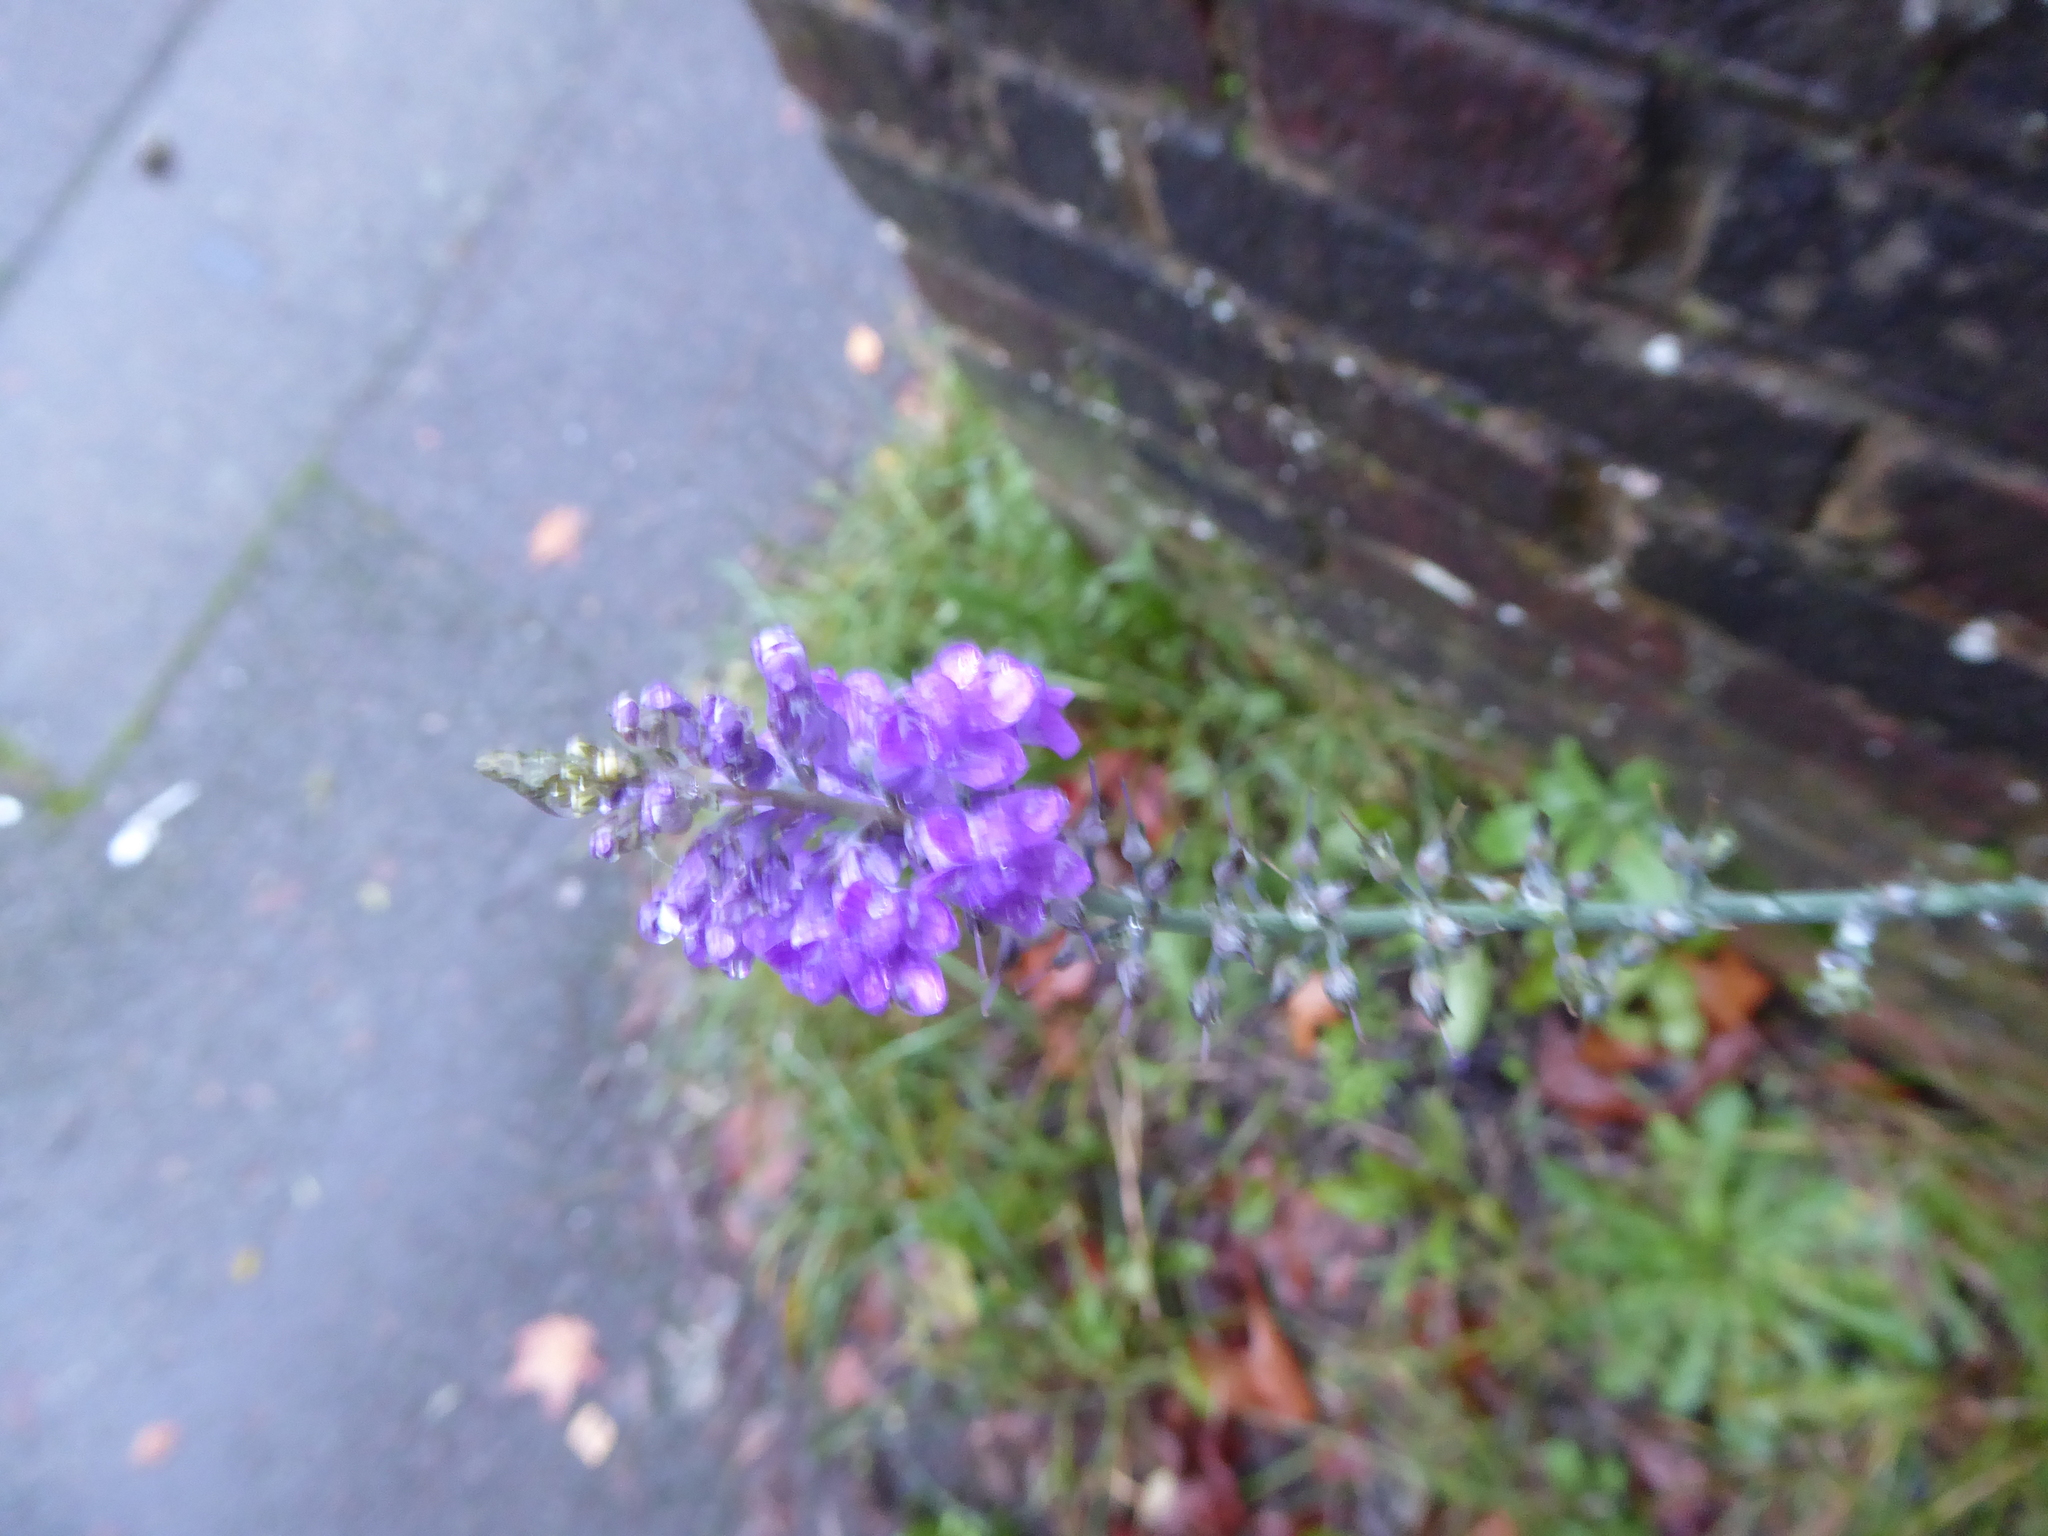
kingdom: Plantae
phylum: Tracheophyta
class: Magnoliopsida
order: Lamiales
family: Plantaginaceae
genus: Linaria
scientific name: Linaria purpurea
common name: Purple toadflax
